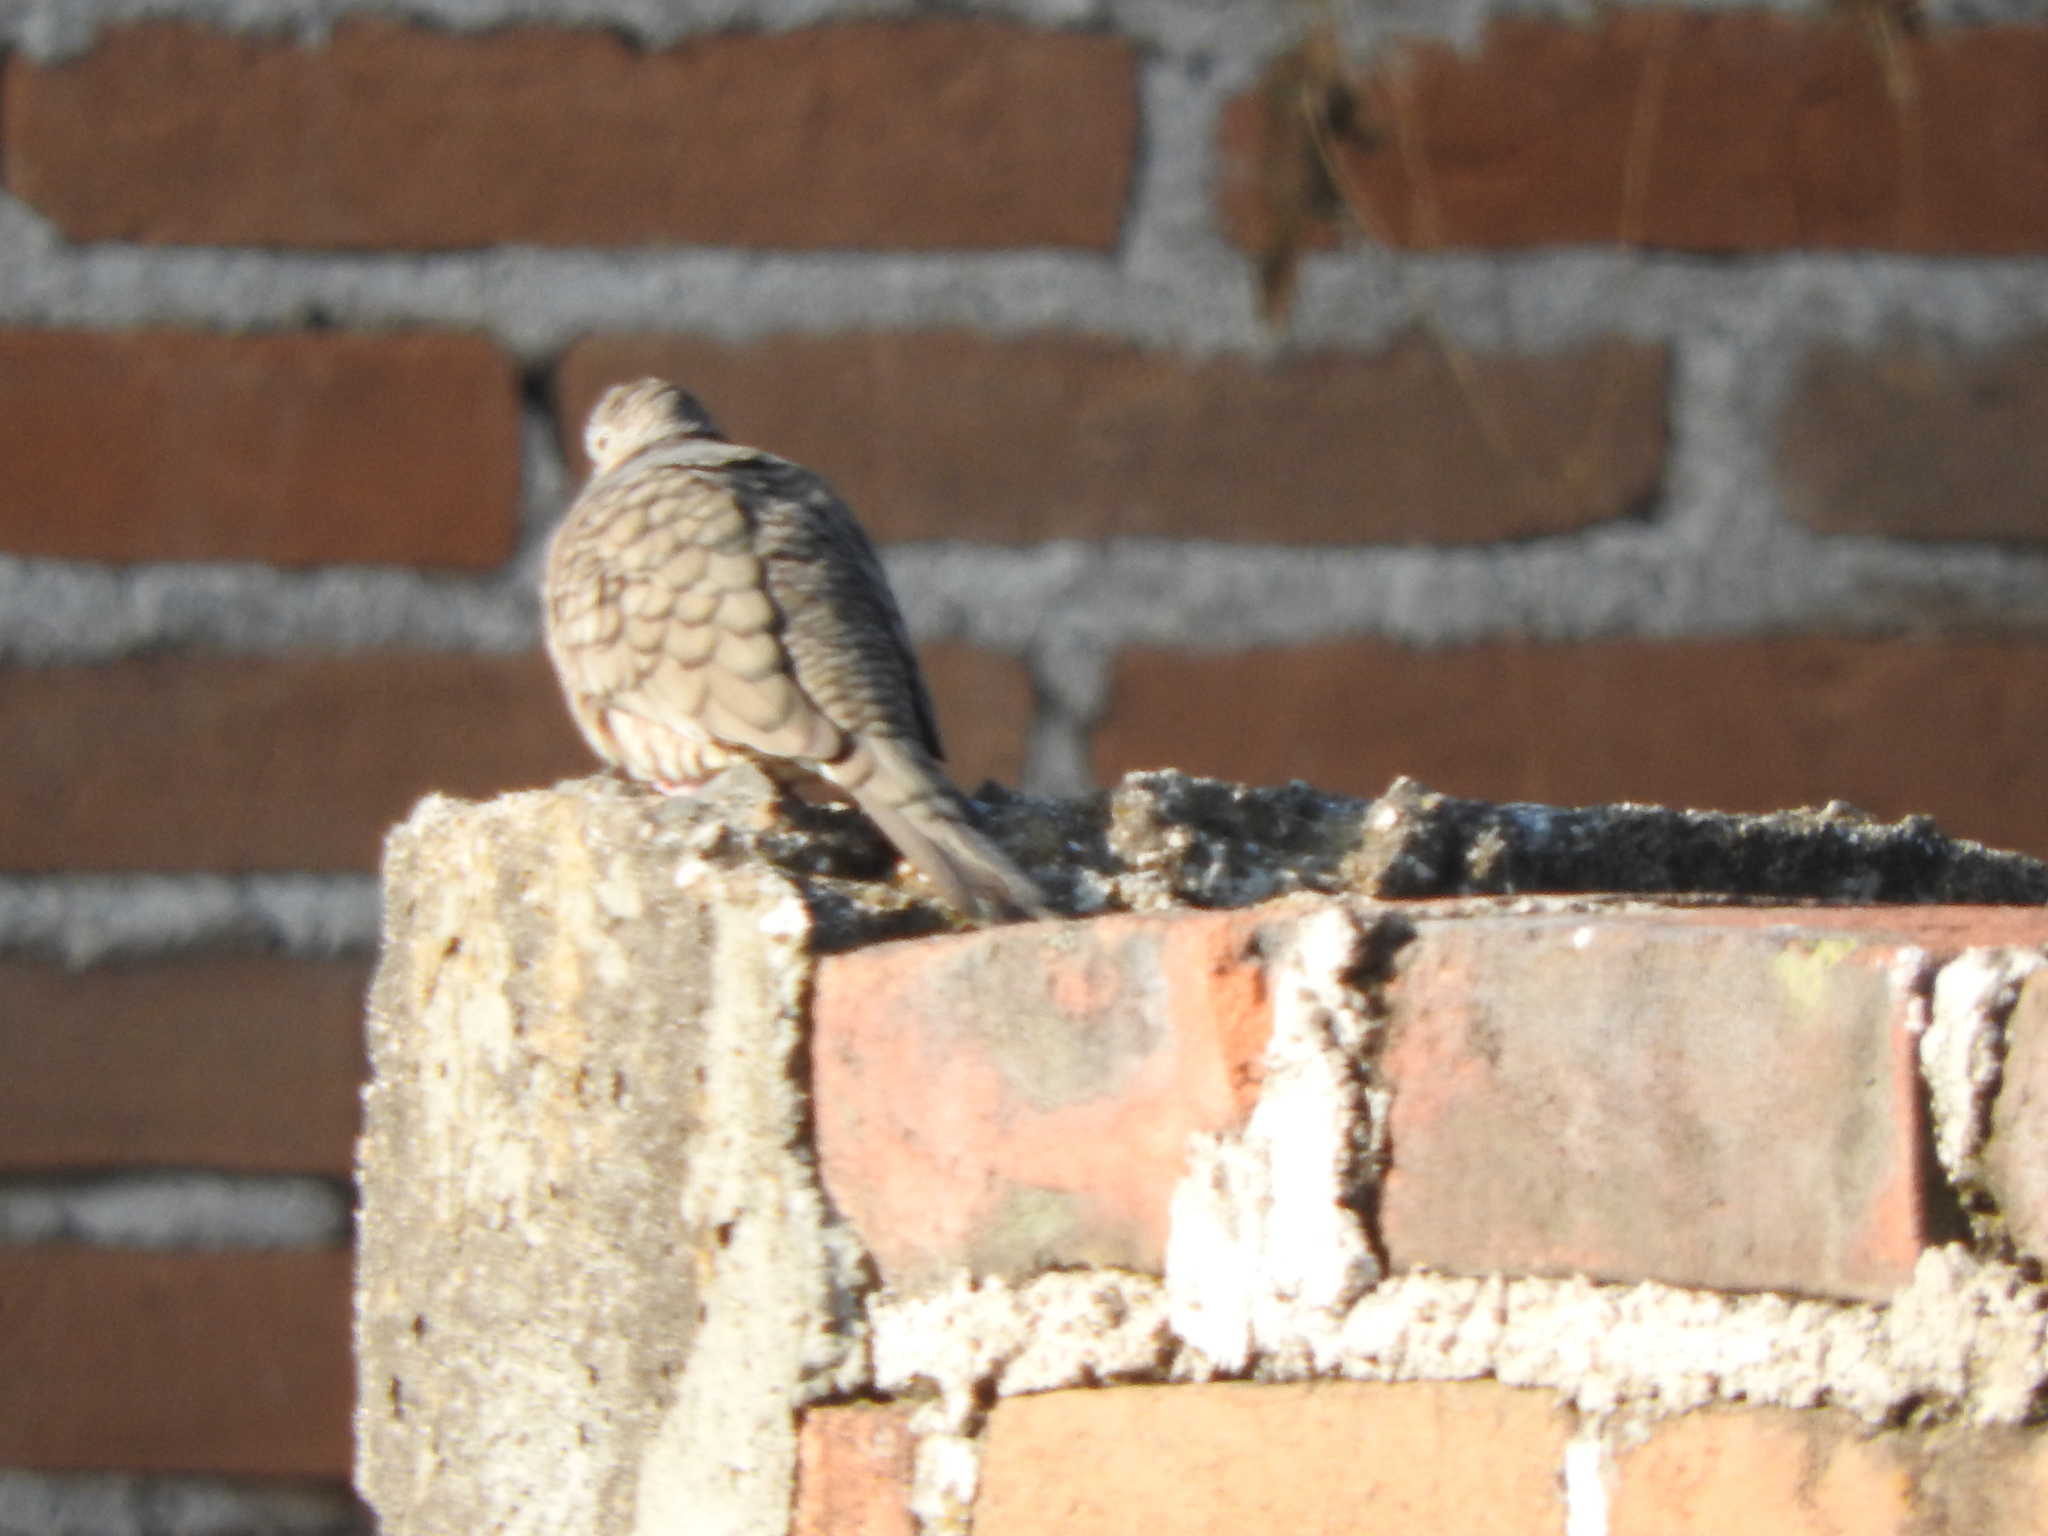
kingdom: Animalia
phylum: Chordata
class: Aves
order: Columbiformes
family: Columbidae
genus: Columbina
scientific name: Columbina inca
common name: Inca dove
